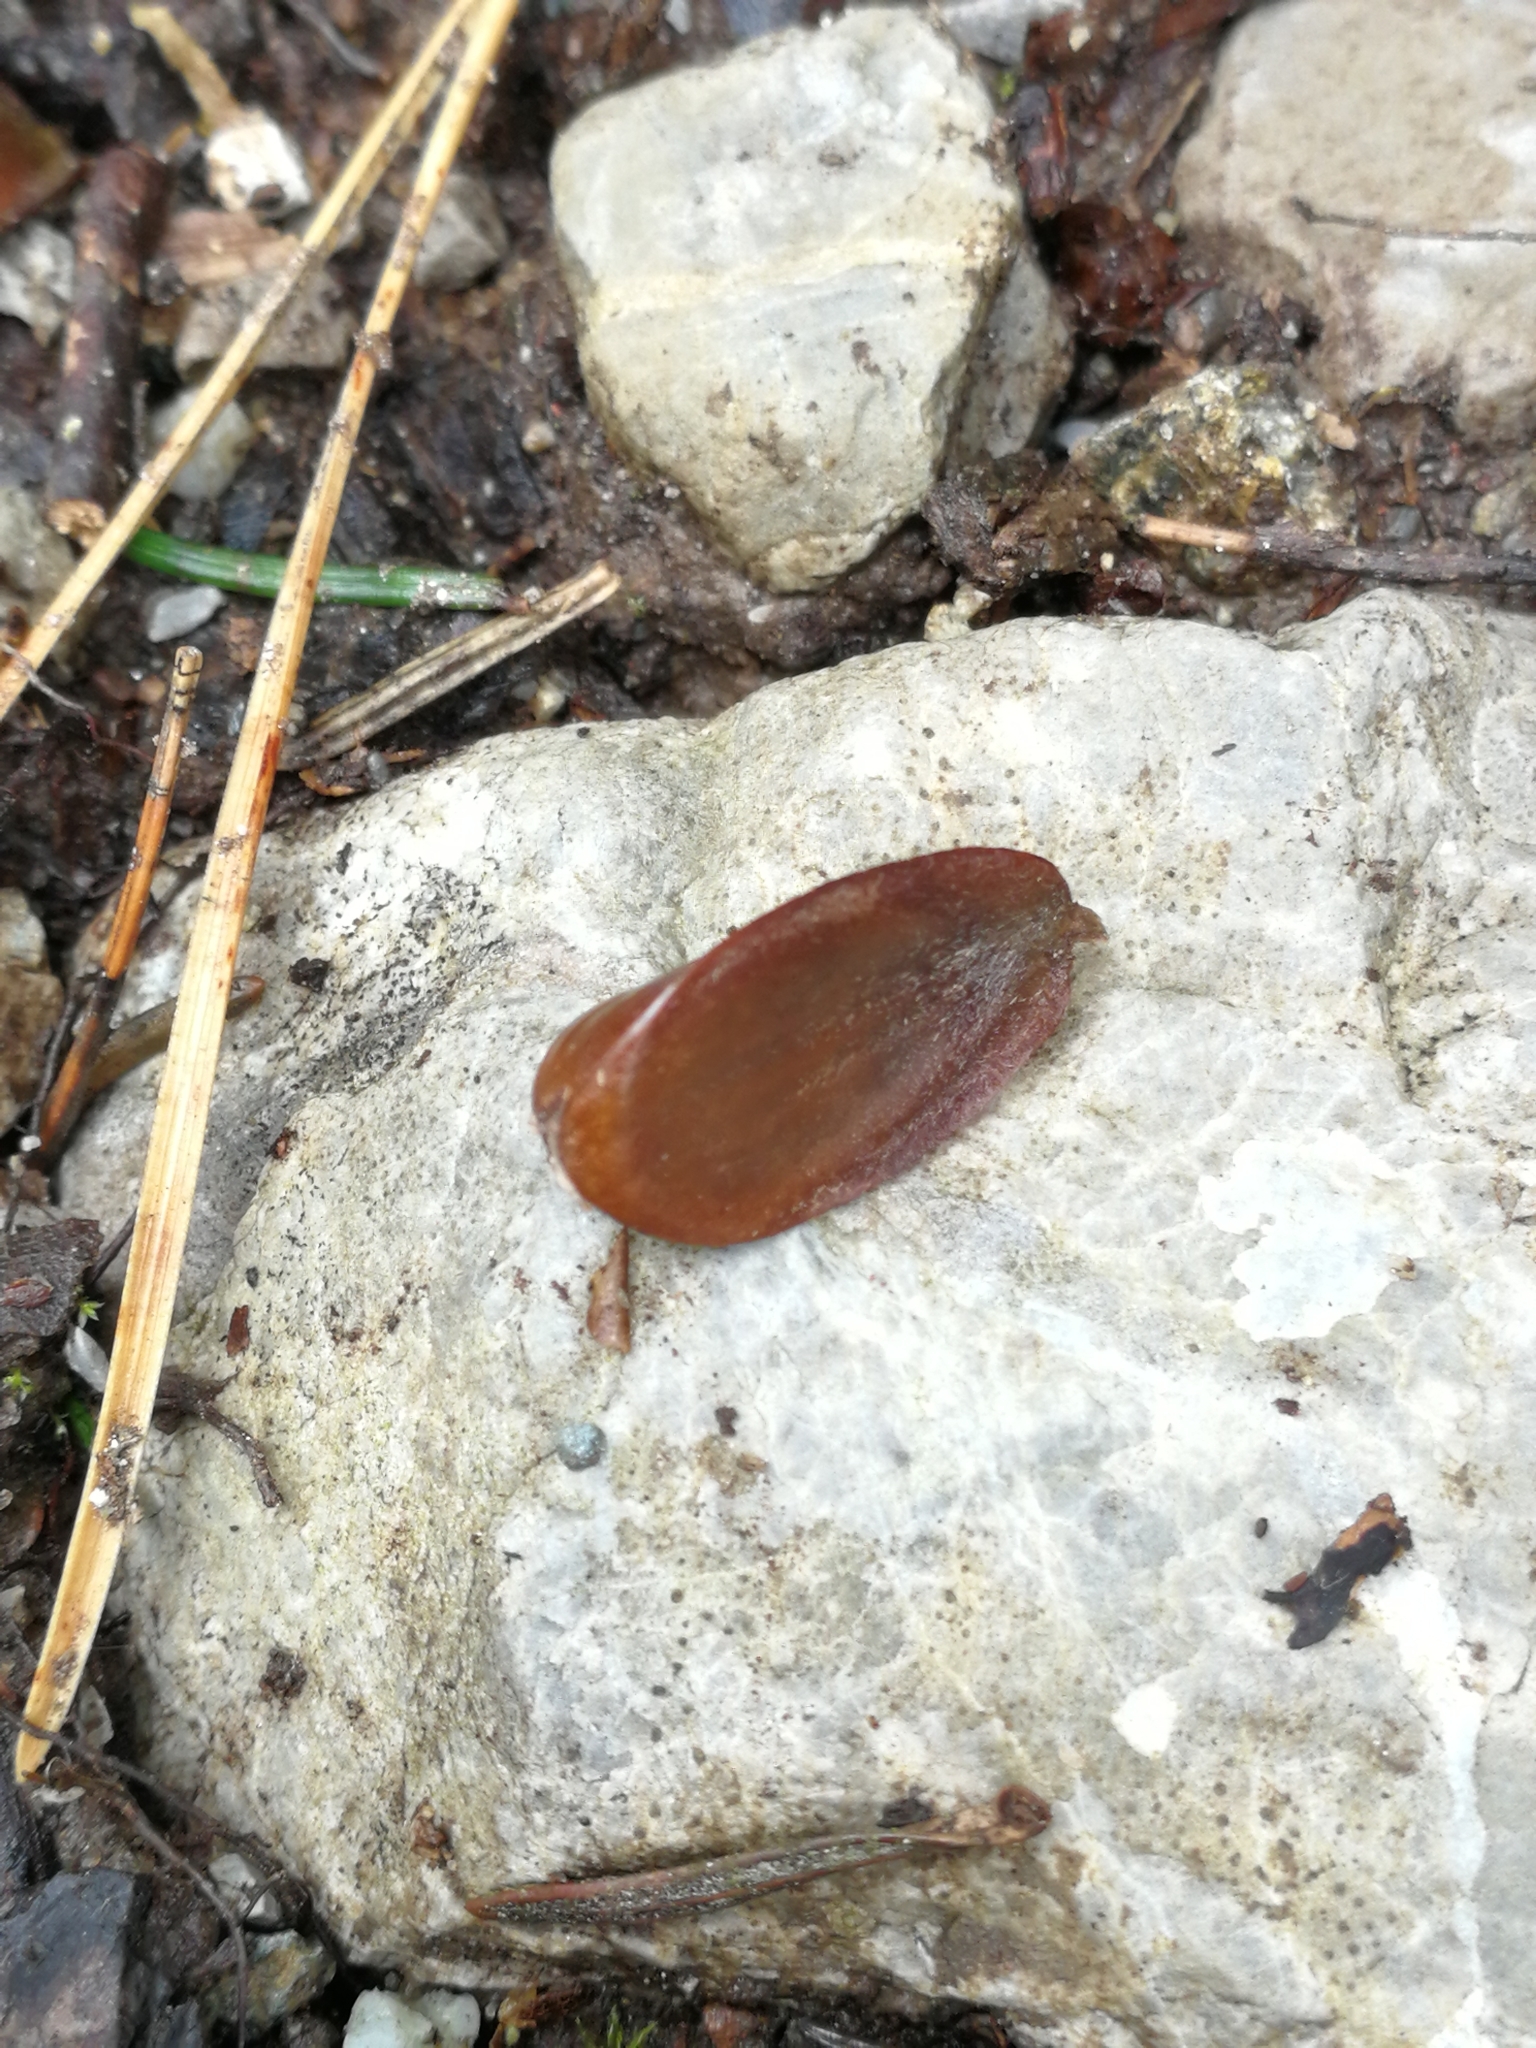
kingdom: Plantae
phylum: Tracheophyta
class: Magnoliopsida
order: Fagales
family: Fagaceae
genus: Fagus
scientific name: Fagus sylvatica
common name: Beech
